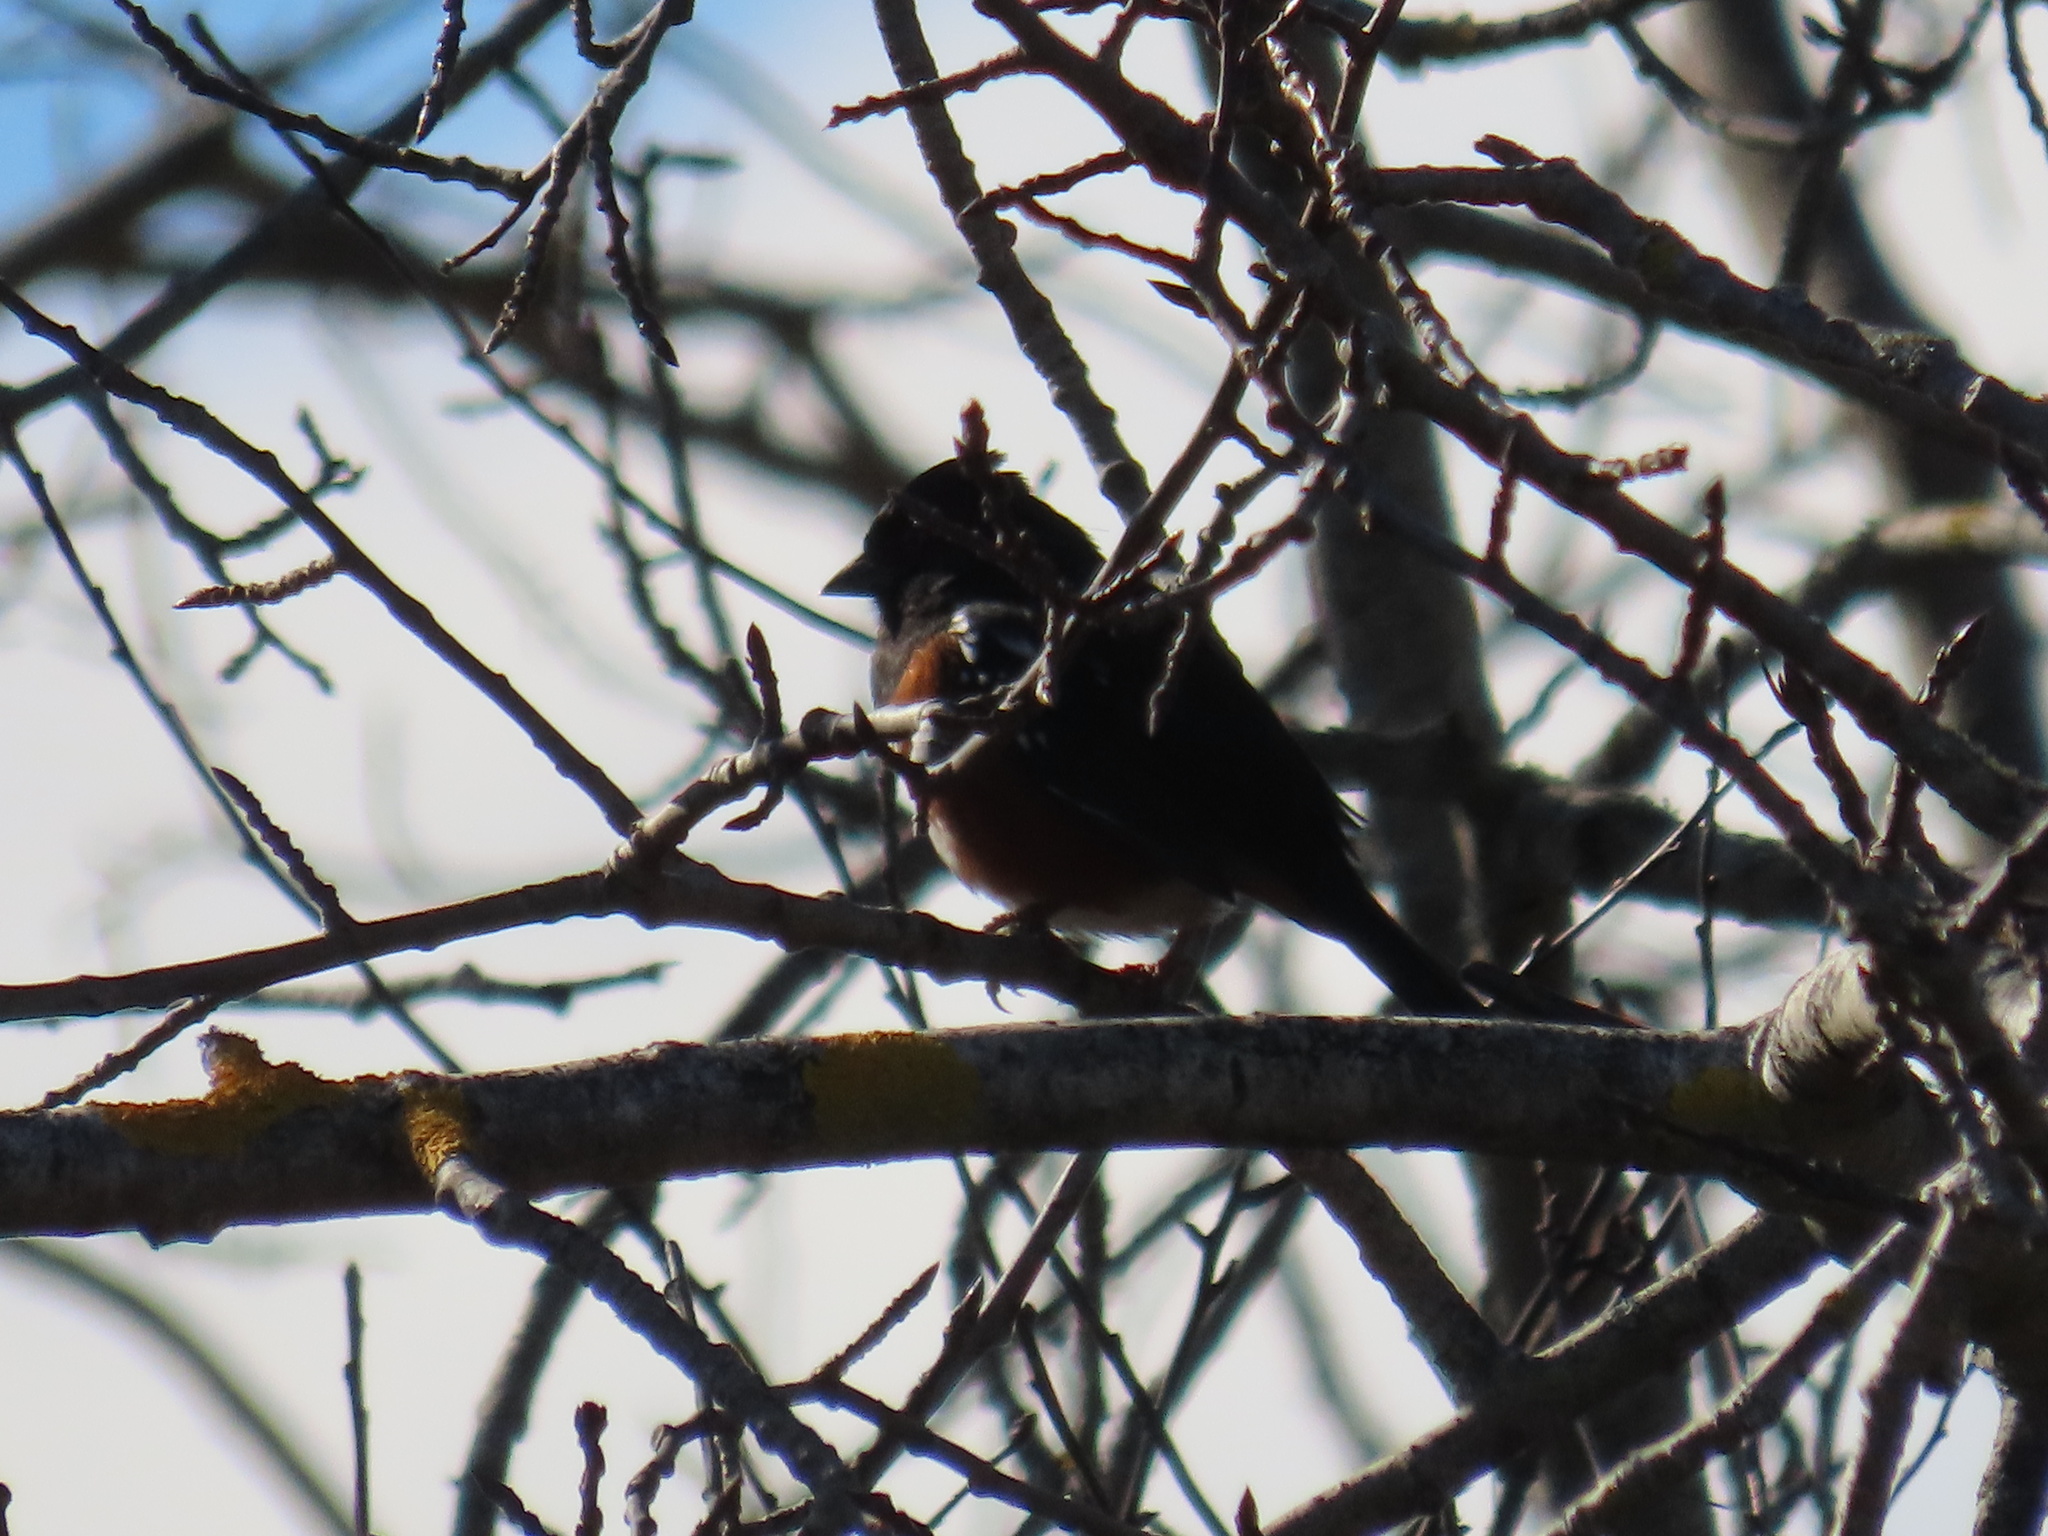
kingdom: Animalia
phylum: Chordata
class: Aves
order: Passeriformes
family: Passerellidae
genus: Pipilo
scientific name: Pipilo maculatus
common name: Spotted towhee
